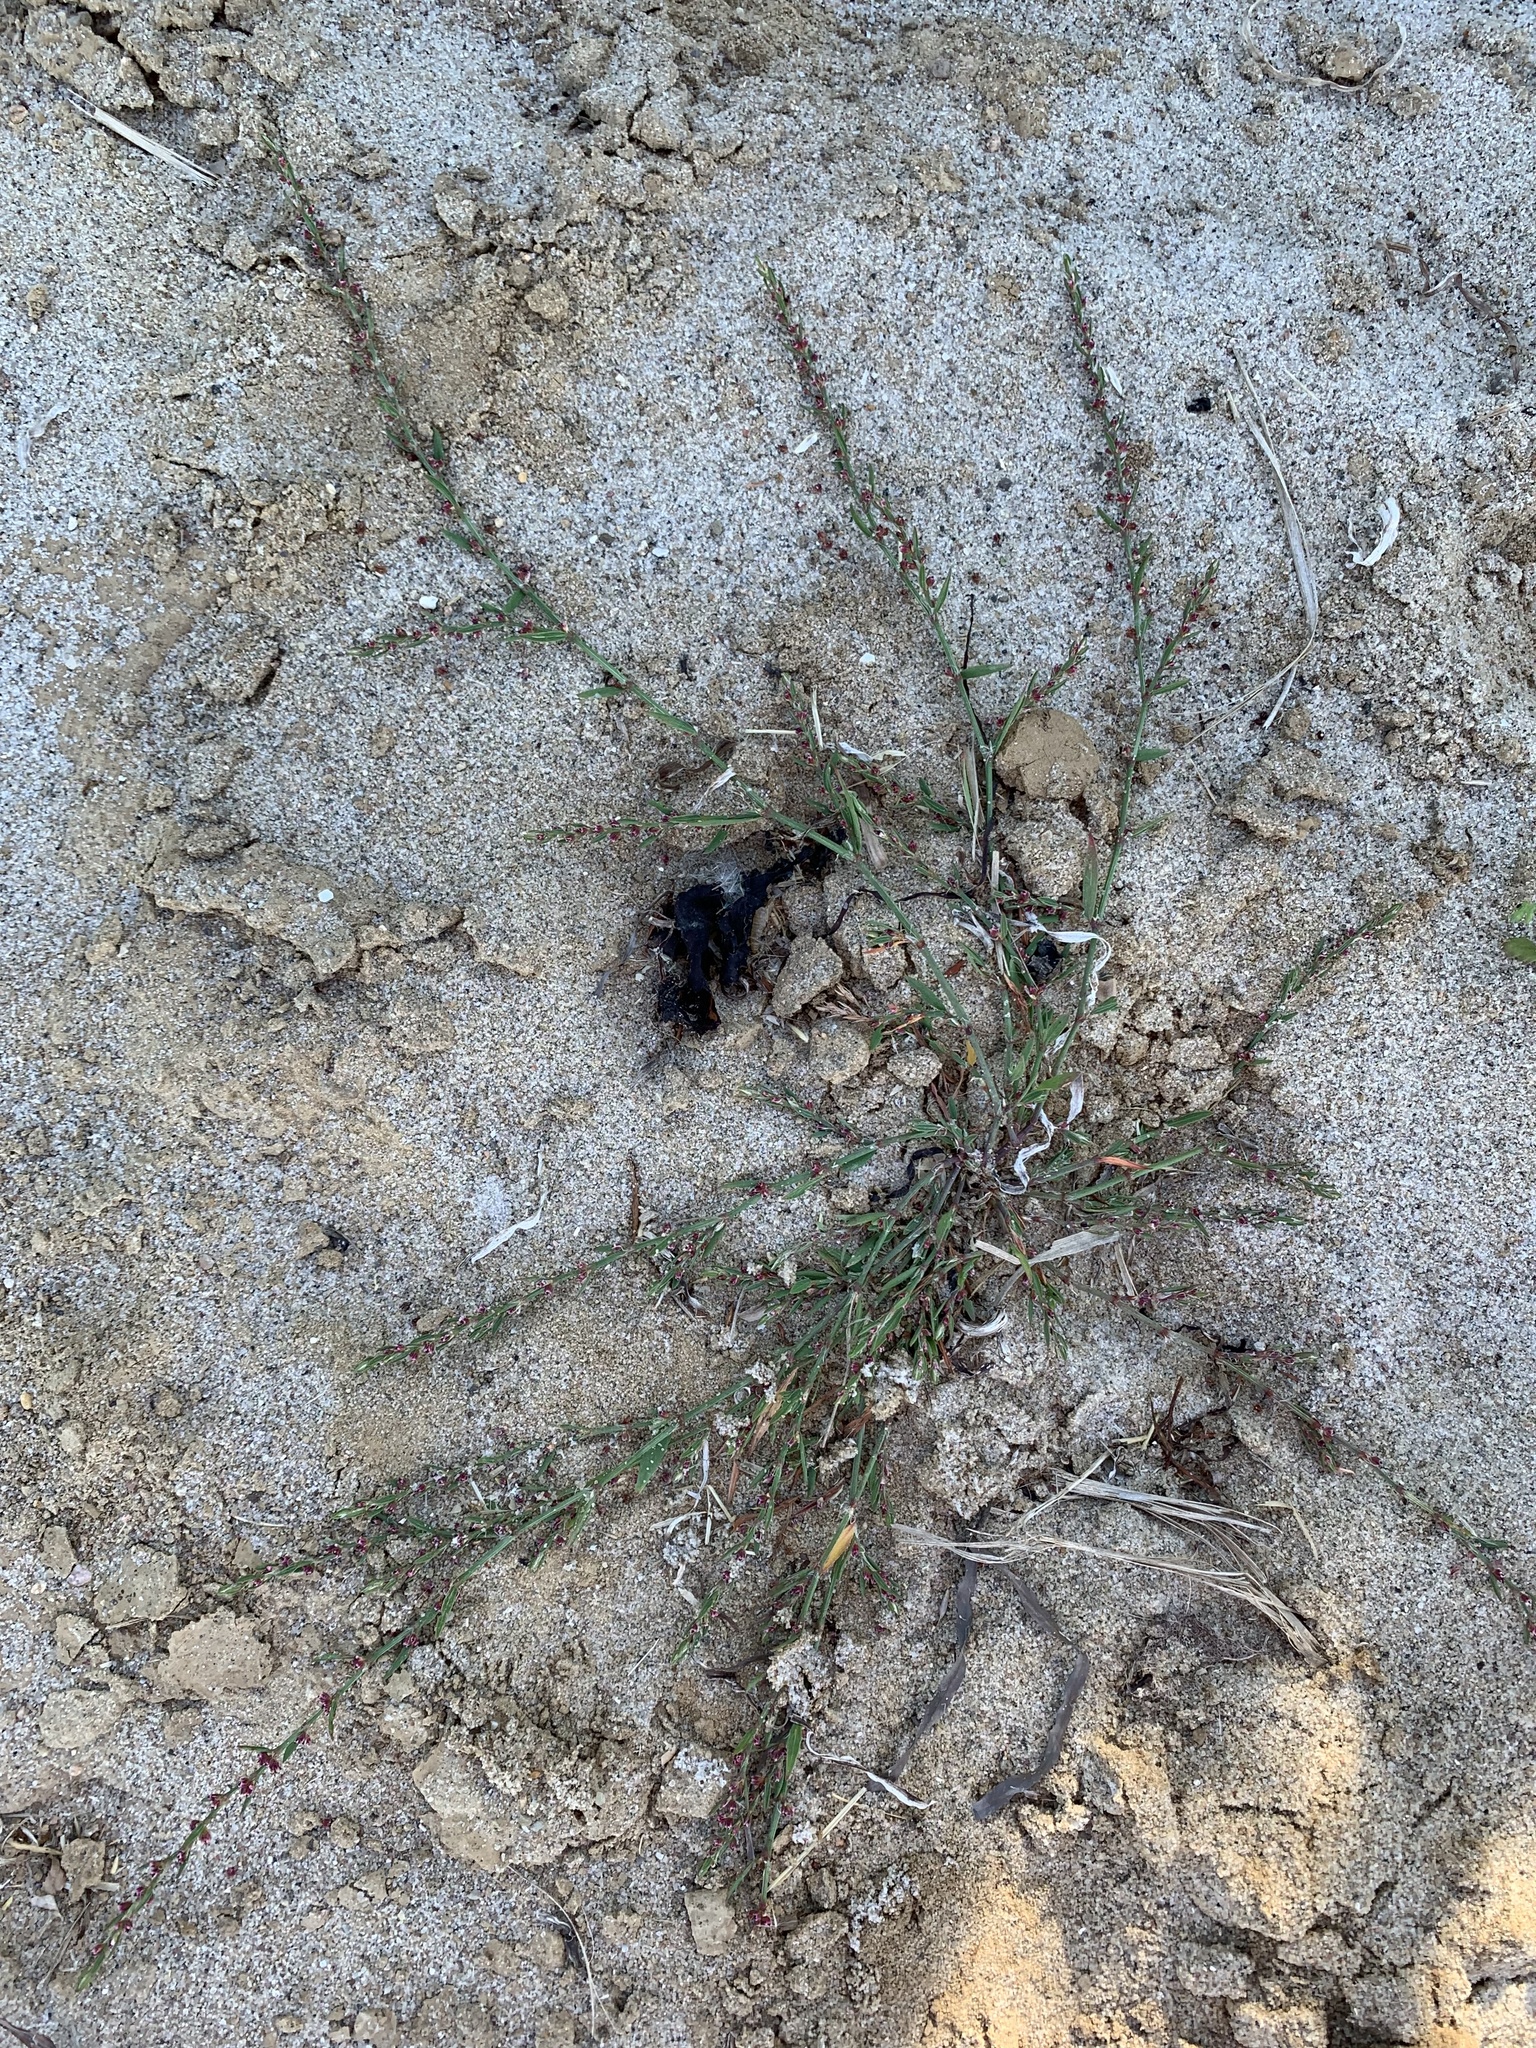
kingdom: Plantae
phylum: Tracheophyta
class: Magnoliopsida
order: Caryophyllales
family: Polygonaceae
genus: Polygonum
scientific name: Polygonum aviculare
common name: Prostrate knotweed
